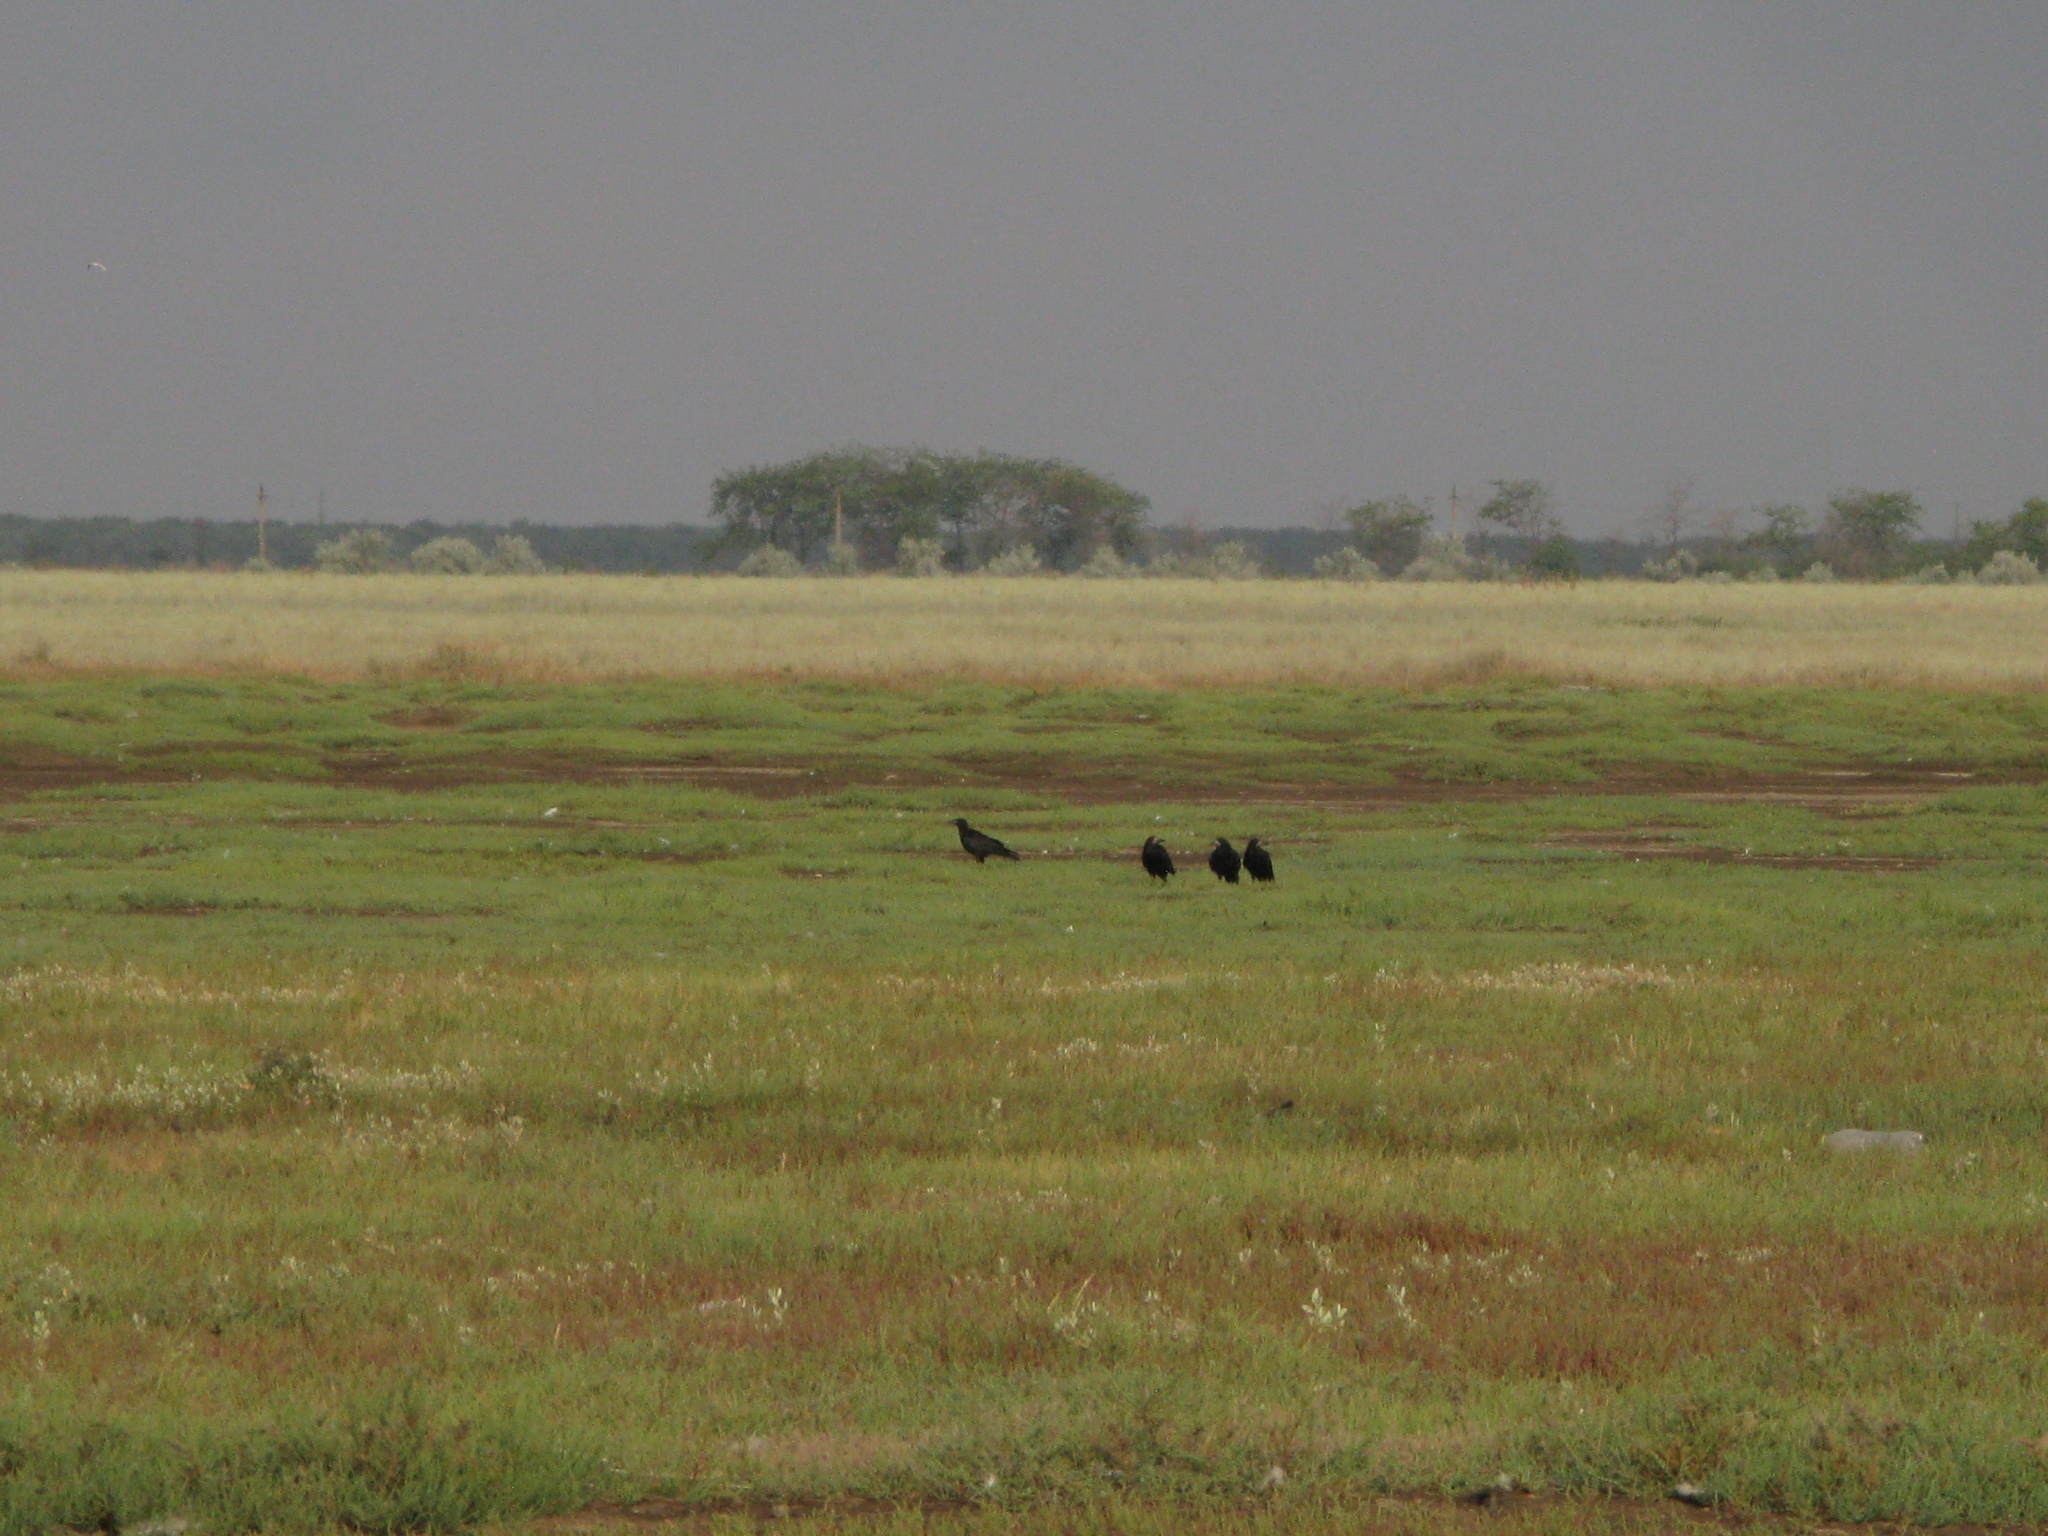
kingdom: Animalia
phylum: Chordata
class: Aves
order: Passeriformes
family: Corvidae
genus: Corvus
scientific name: Corvus frugilegus
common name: Rook
